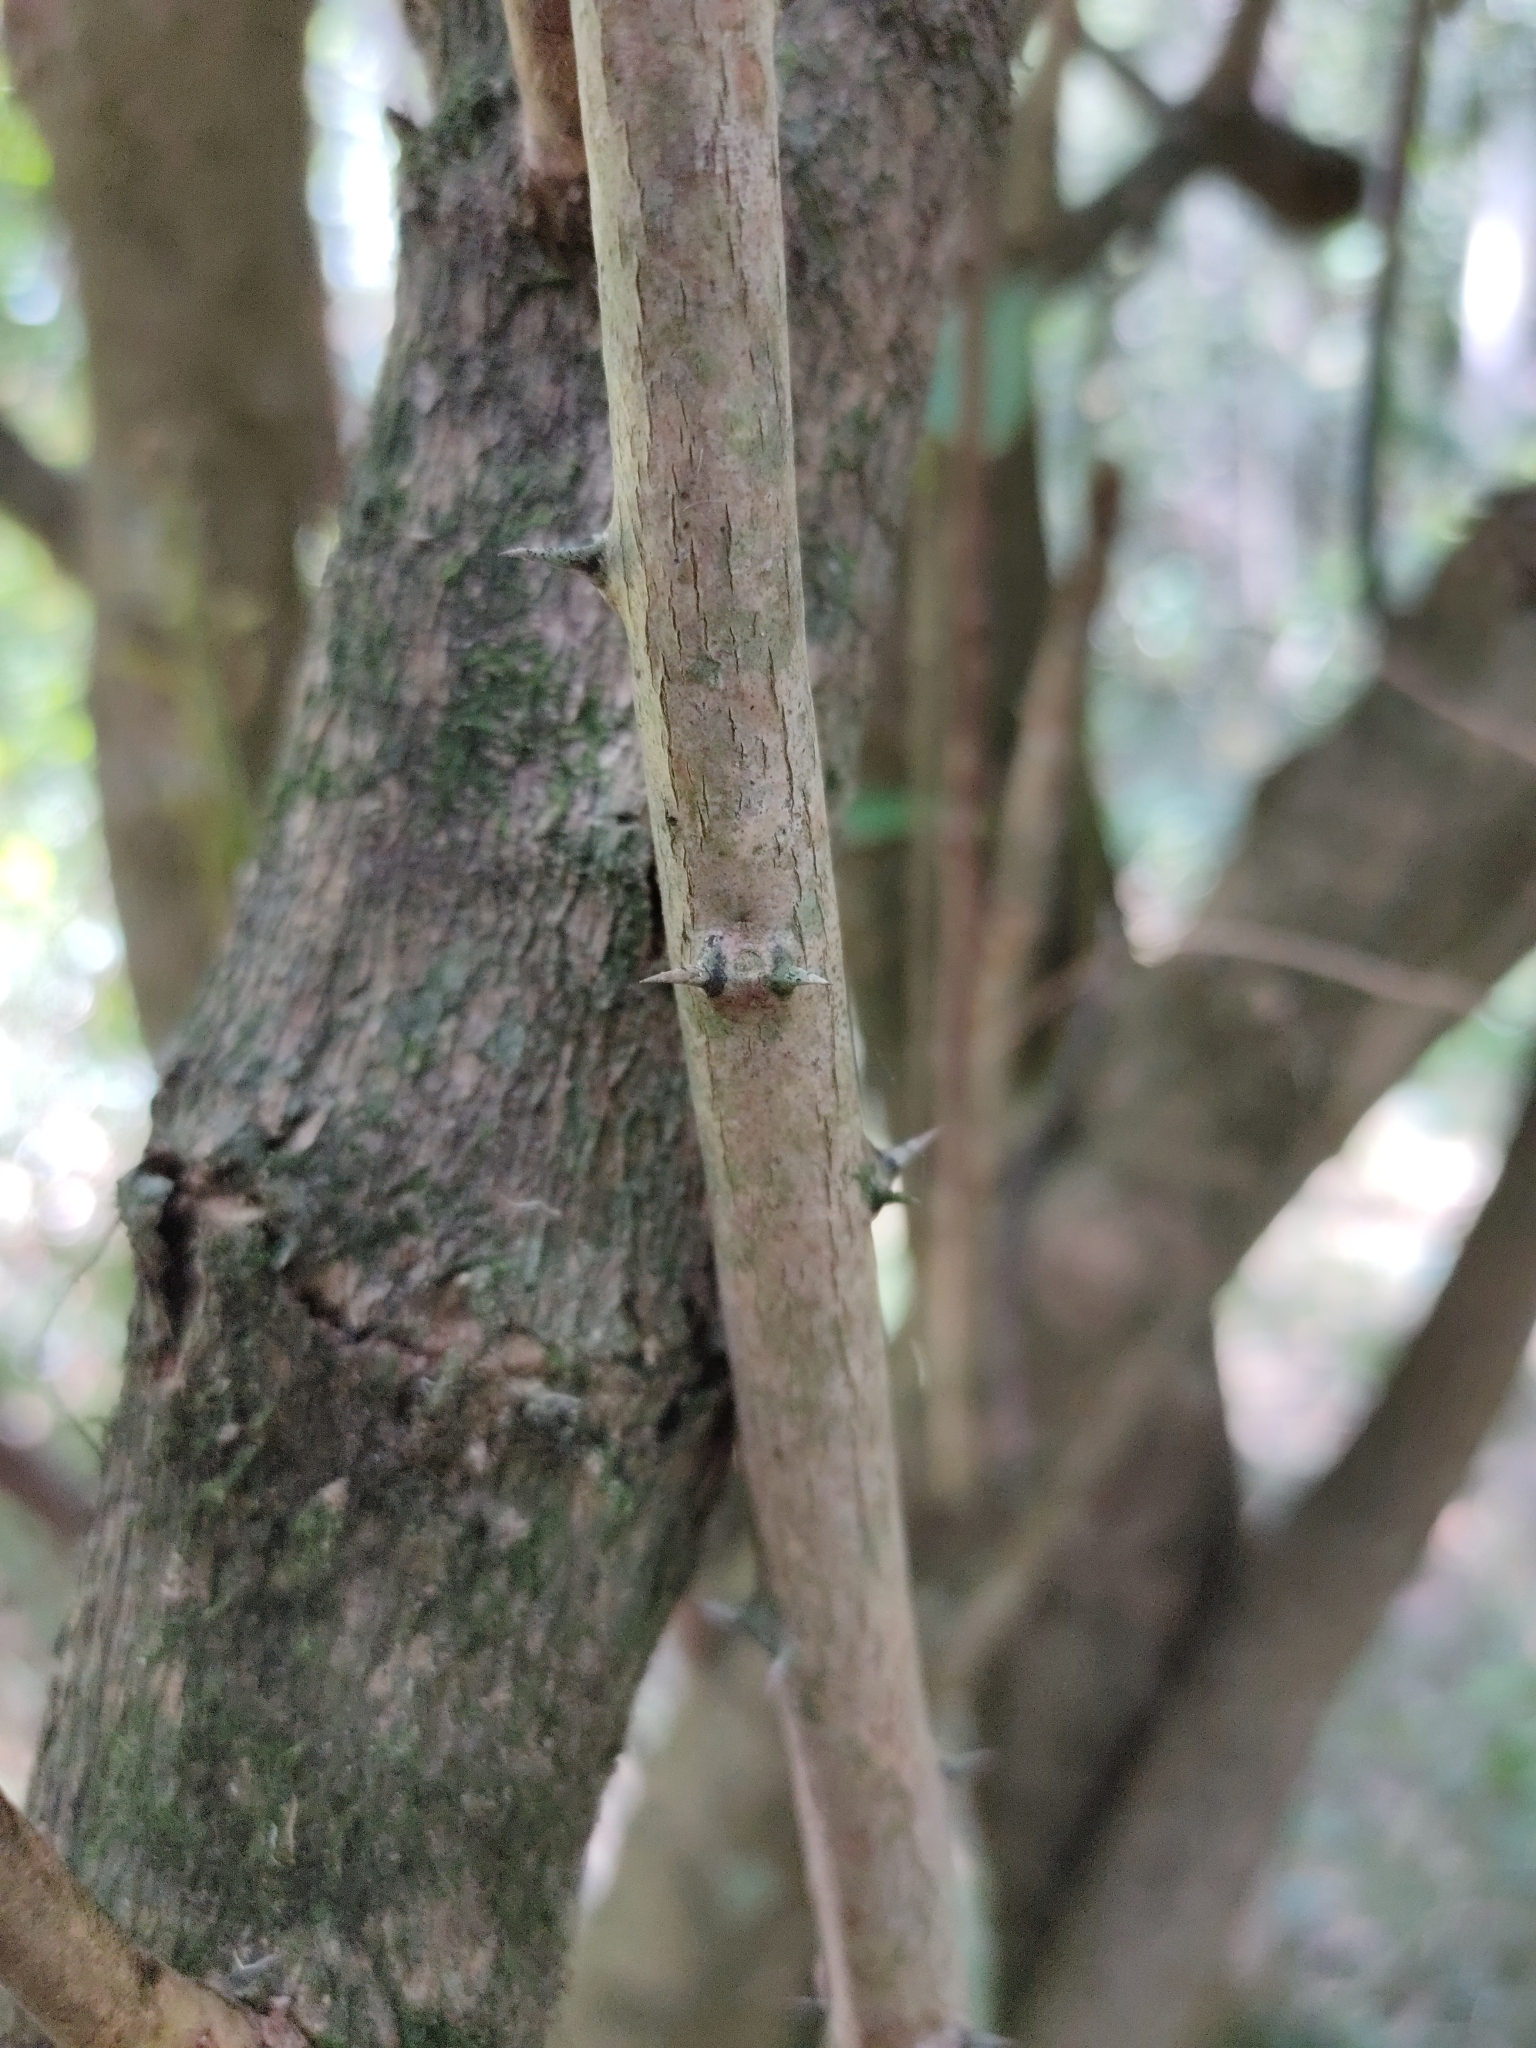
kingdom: Plantae
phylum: Tracheophyta
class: Magnoliopsida
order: Brassicales
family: Capparaceae
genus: Capparis
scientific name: Capparis arborea
